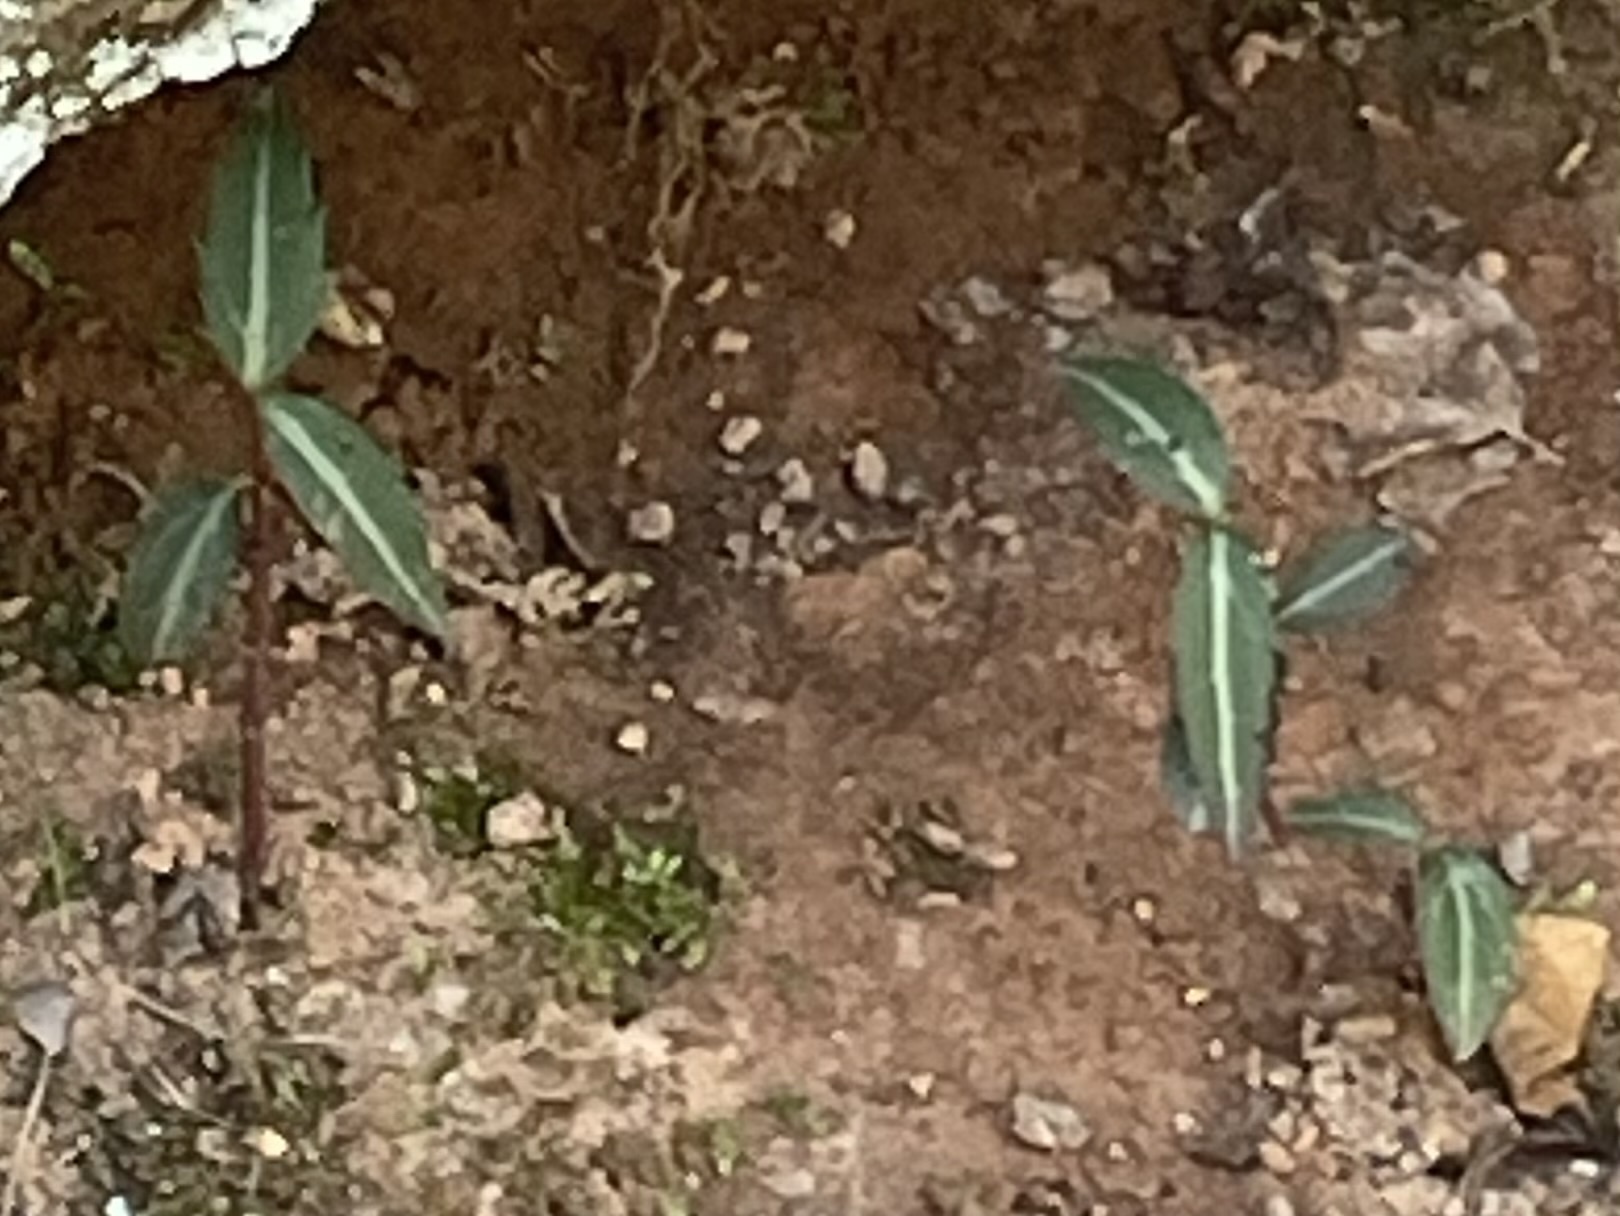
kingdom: Plantae
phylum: Tracheophyta
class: Magnoliopsida
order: Ericales
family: Ericaceae
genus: Chimaphila
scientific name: Chimaphila maculata
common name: Spotted pipsissewa
